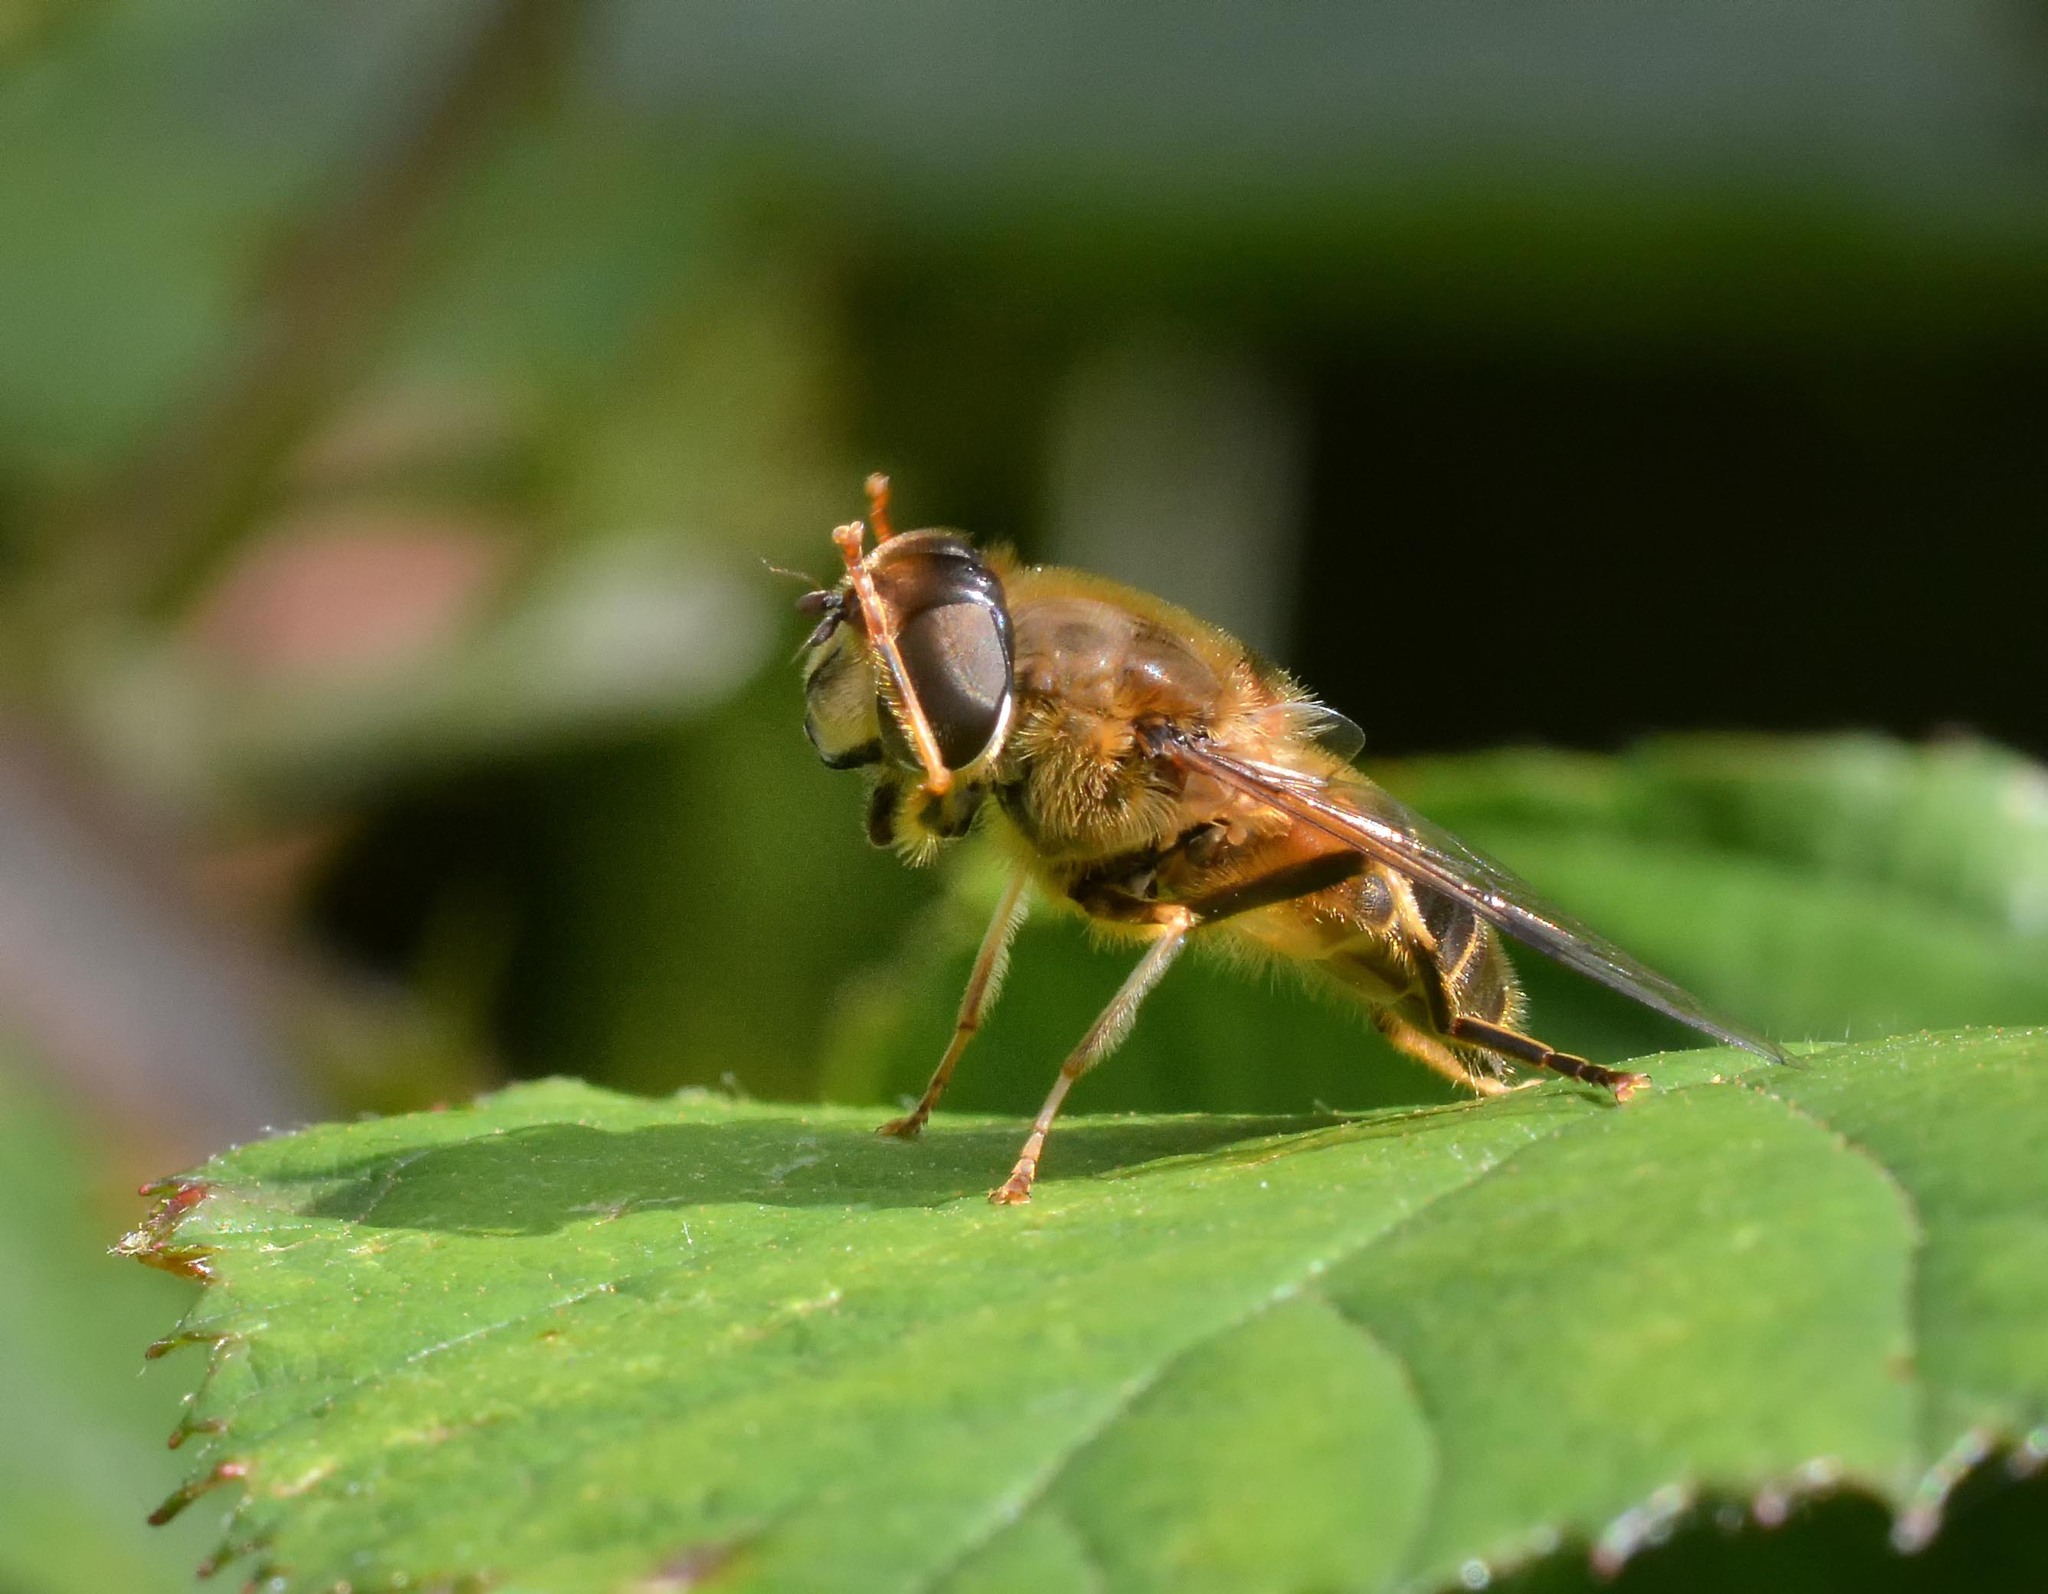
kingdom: Animalia
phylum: Arthropoda
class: Insecta
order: Diptera
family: Syrphidae
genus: Eristalis
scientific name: Eristalis pertinax
